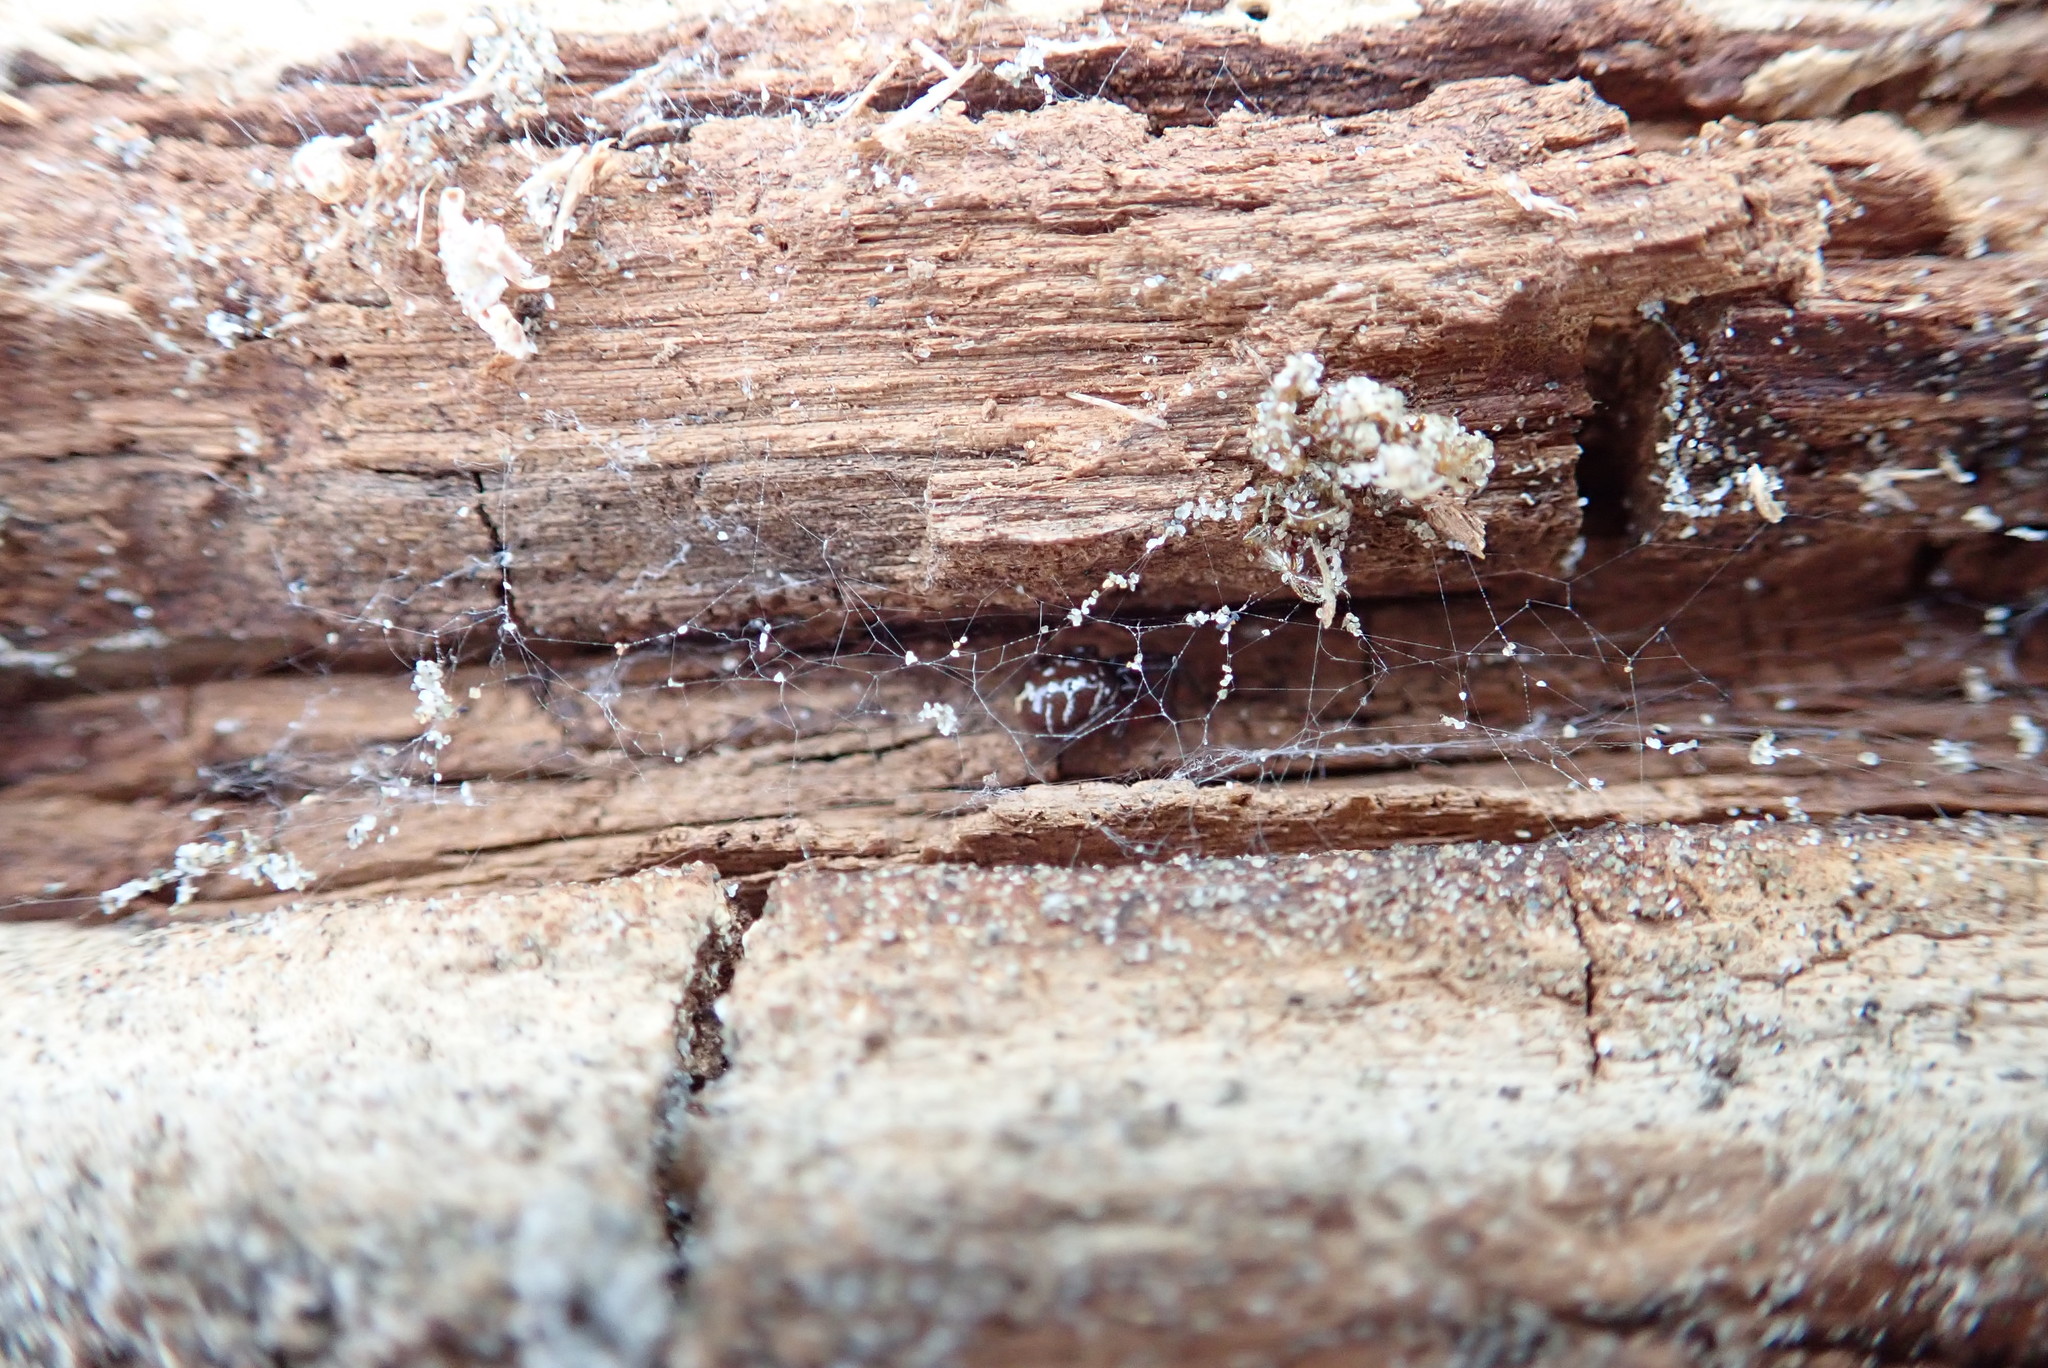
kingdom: Animalia
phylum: Arthropoda
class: Arachnida
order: Araneae
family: Theridiidae
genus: Steatoda
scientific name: Steatoda capensis
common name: Cobweb weaver
